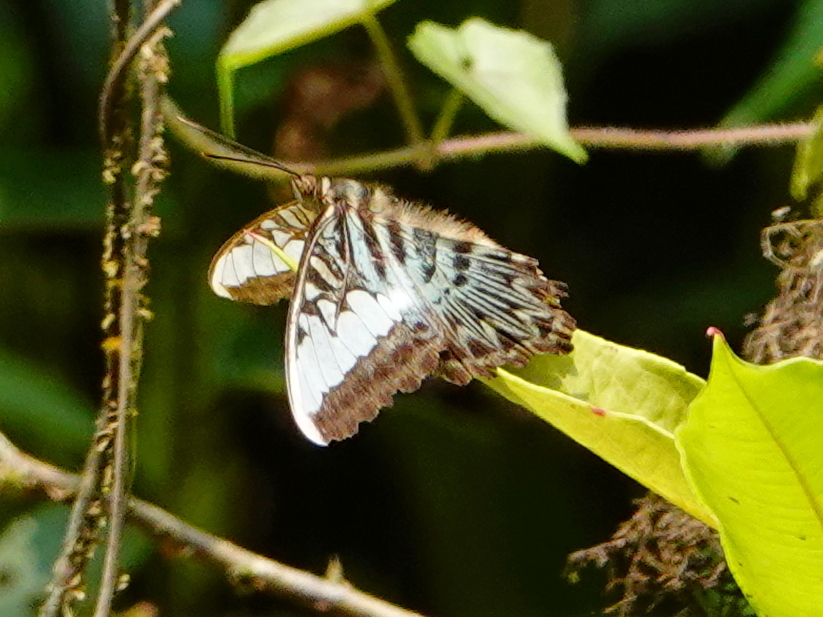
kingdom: Animalia
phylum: Arthropoda
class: Insecta
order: Lepidoptera
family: Nymphalidae
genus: Kallima
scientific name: Kallima sylvia
